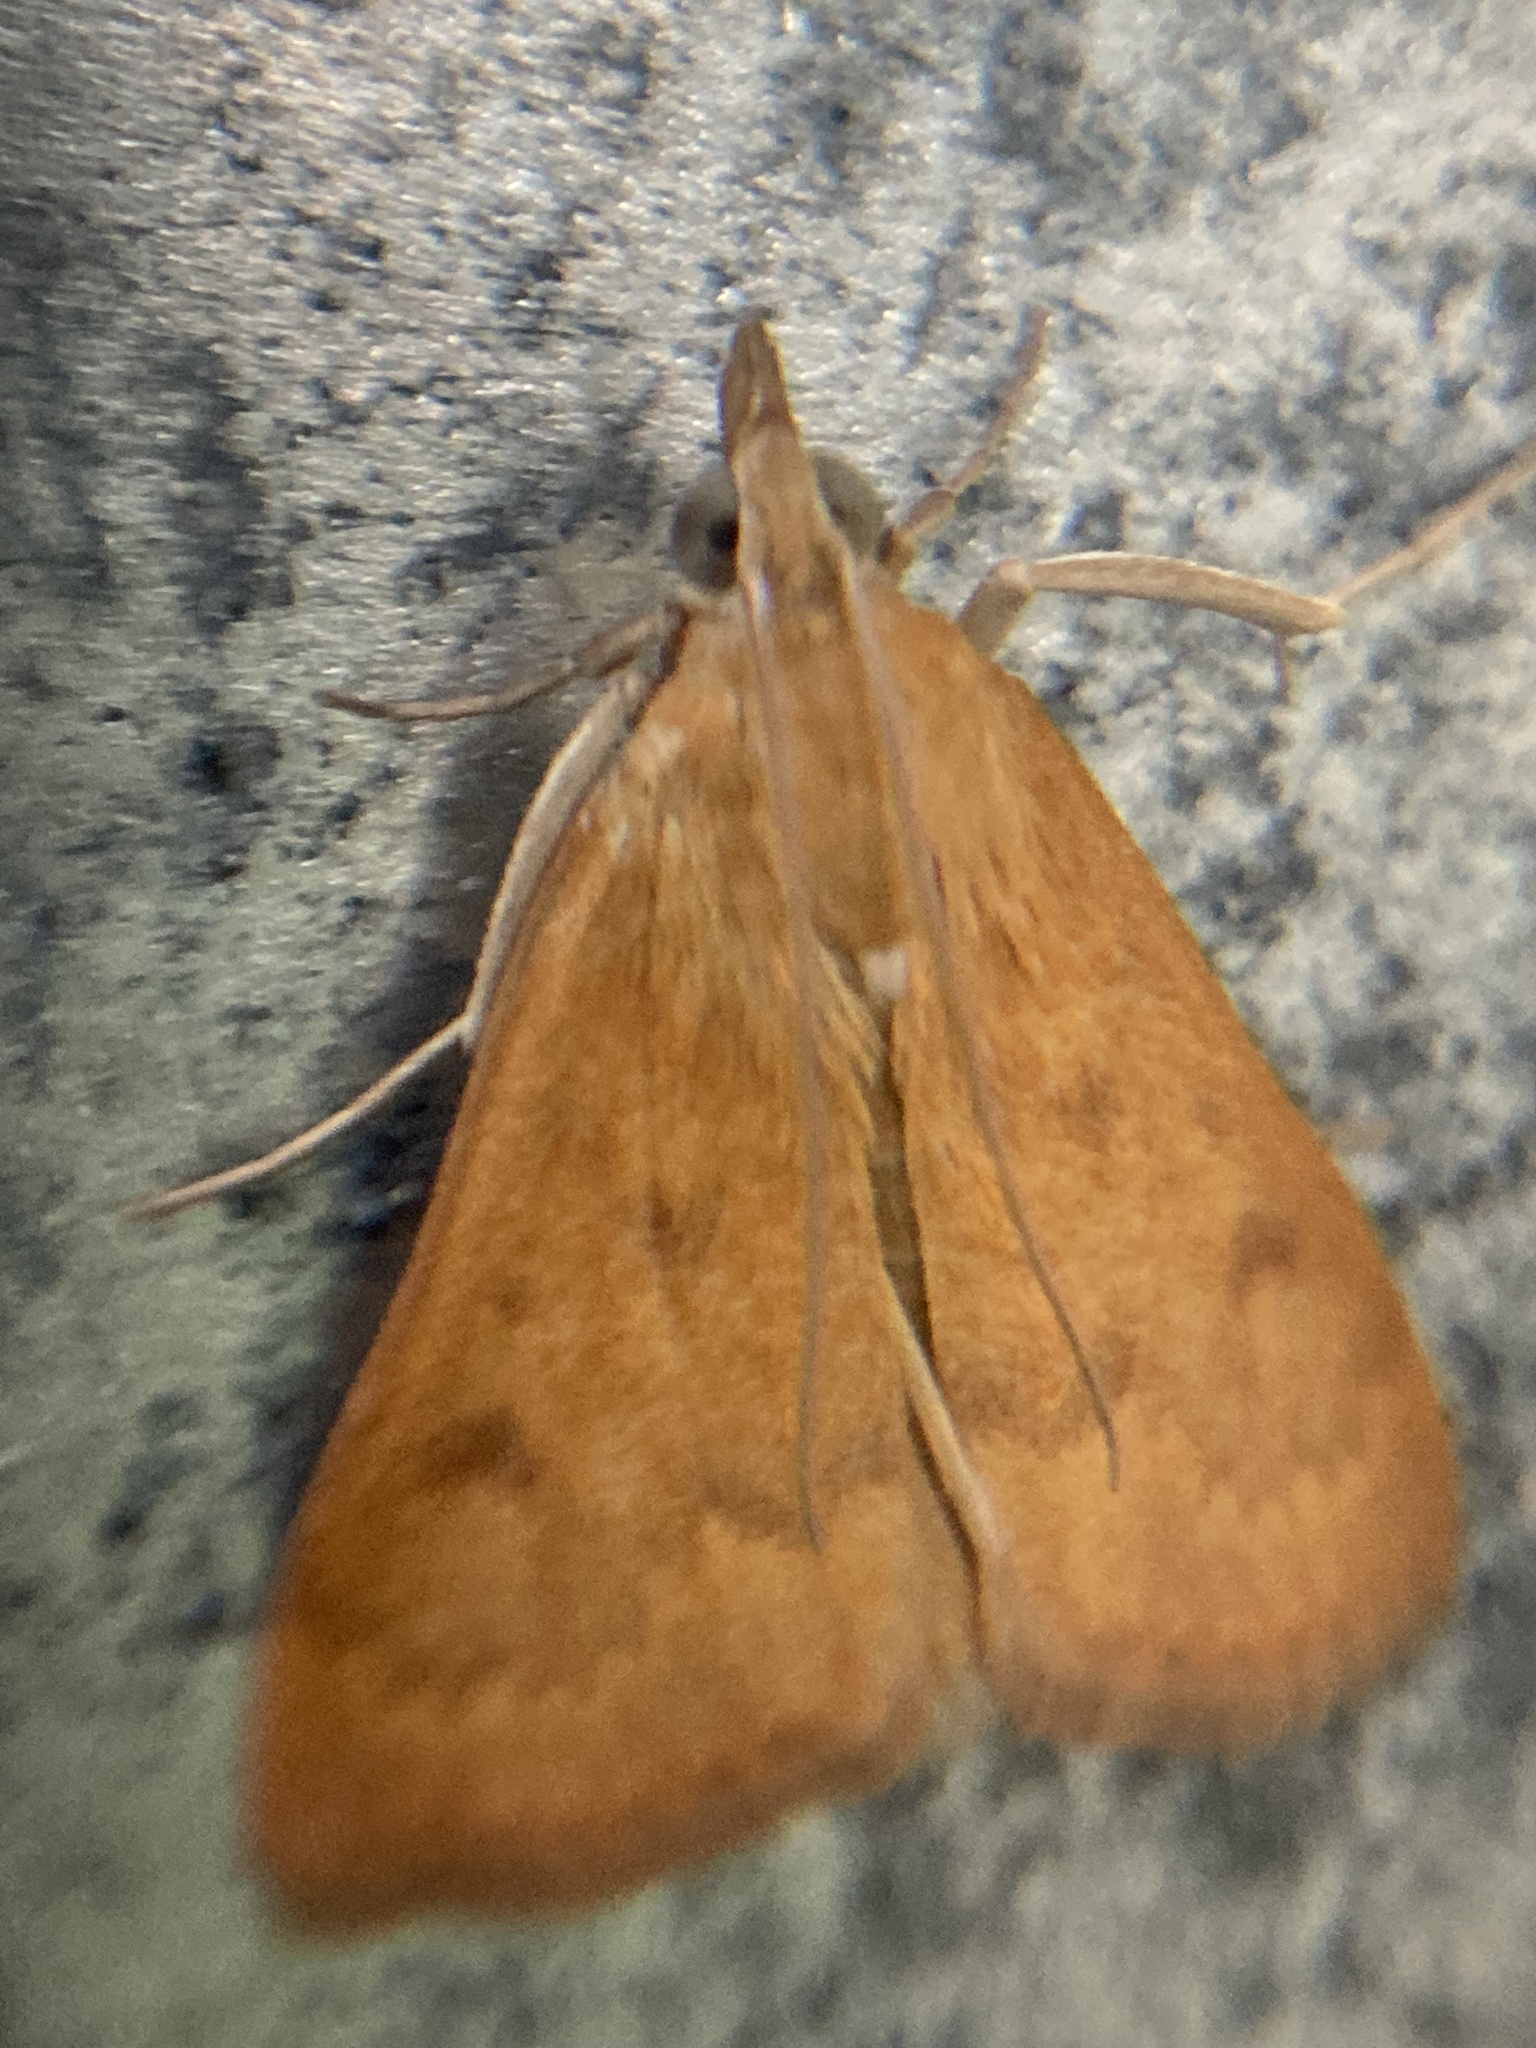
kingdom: Animalia
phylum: Arthropoda
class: Insecta
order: Lepidoptera
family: Crambidae
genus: Achyra
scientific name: Achyra rantalis
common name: Garden webworm
